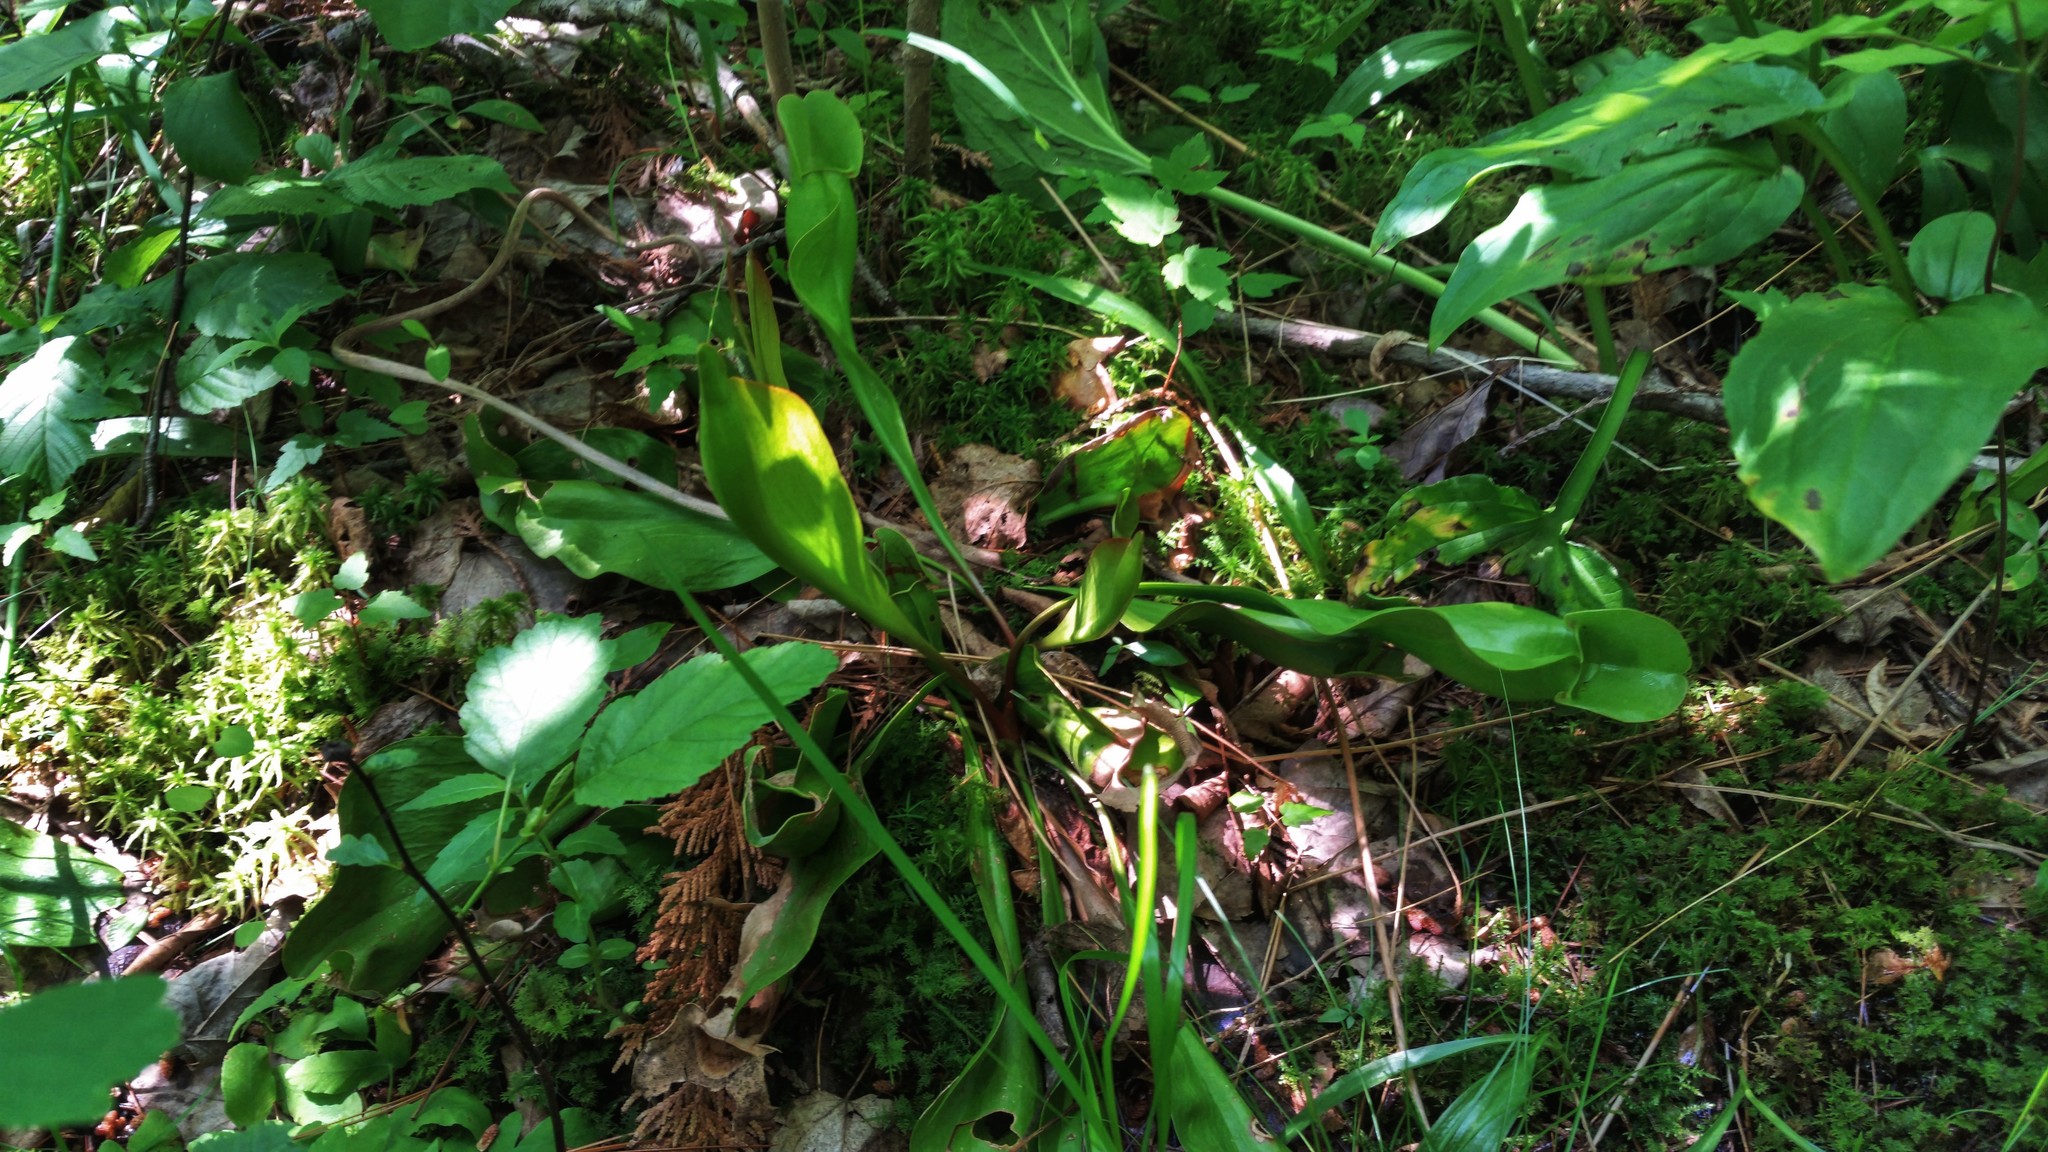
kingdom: Plantae
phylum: Tracheophyta
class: Magnoliopsida
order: Ericales
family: Sarraceniaceae
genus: Sarracenia
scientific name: Sarracenia purpurea
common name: Pitcherplant
